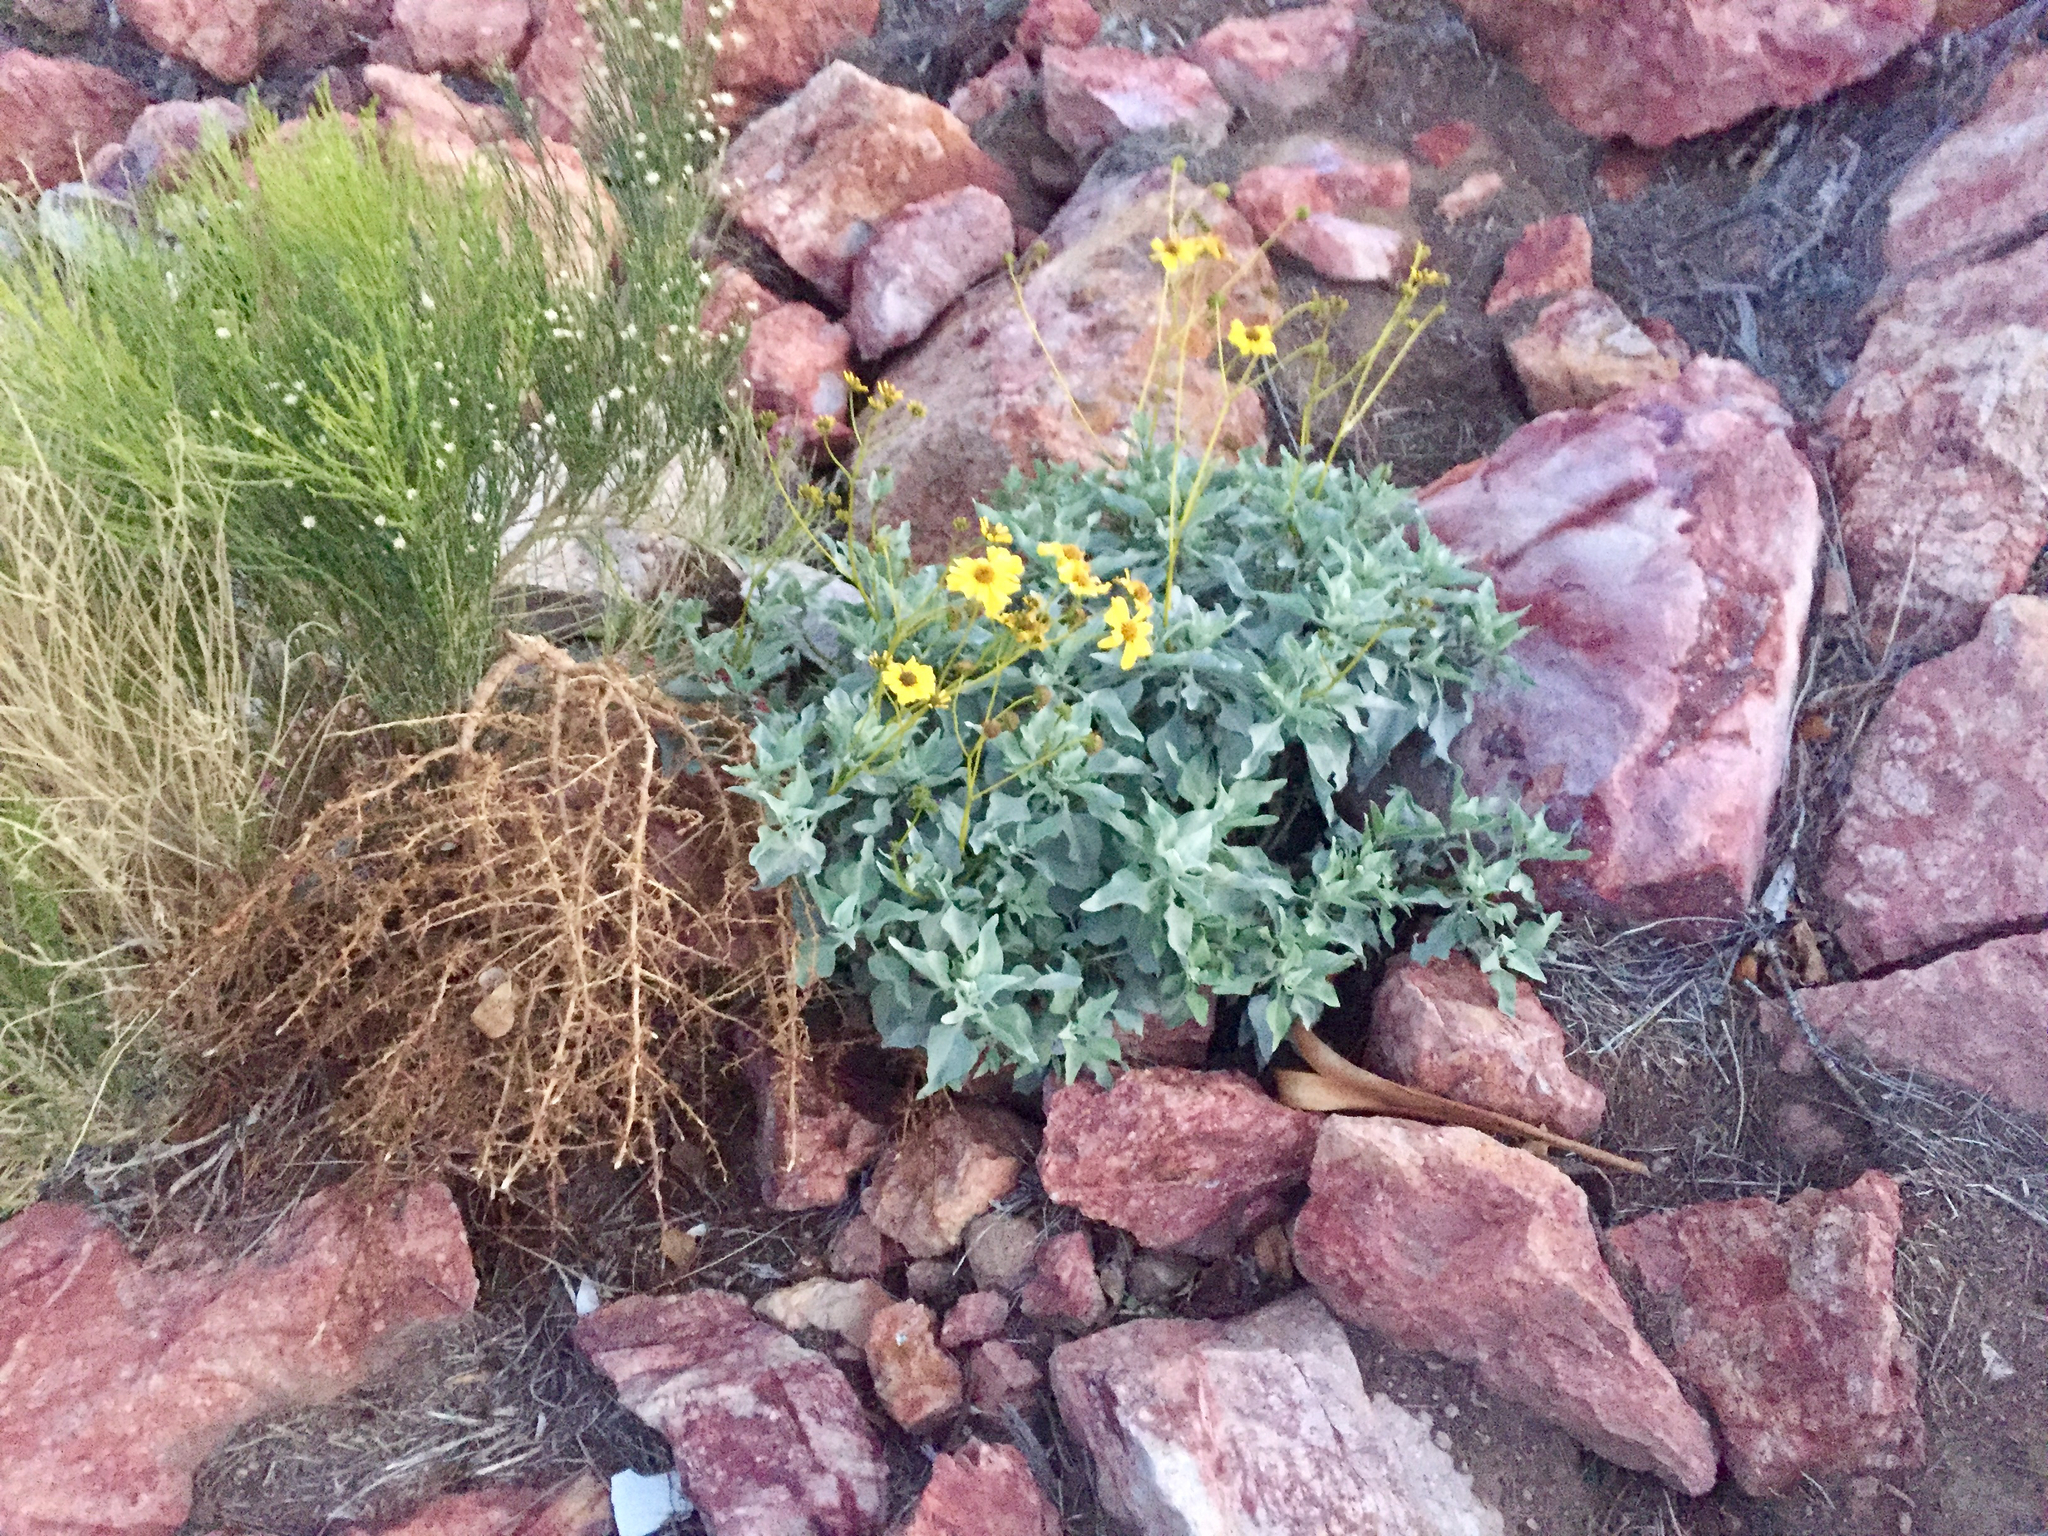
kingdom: Plantae
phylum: Tracheophyta
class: Magnoliopsida
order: Asterales
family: Asteraceae
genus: Encelia
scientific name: Encelia farinosa
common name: Brittlebush
